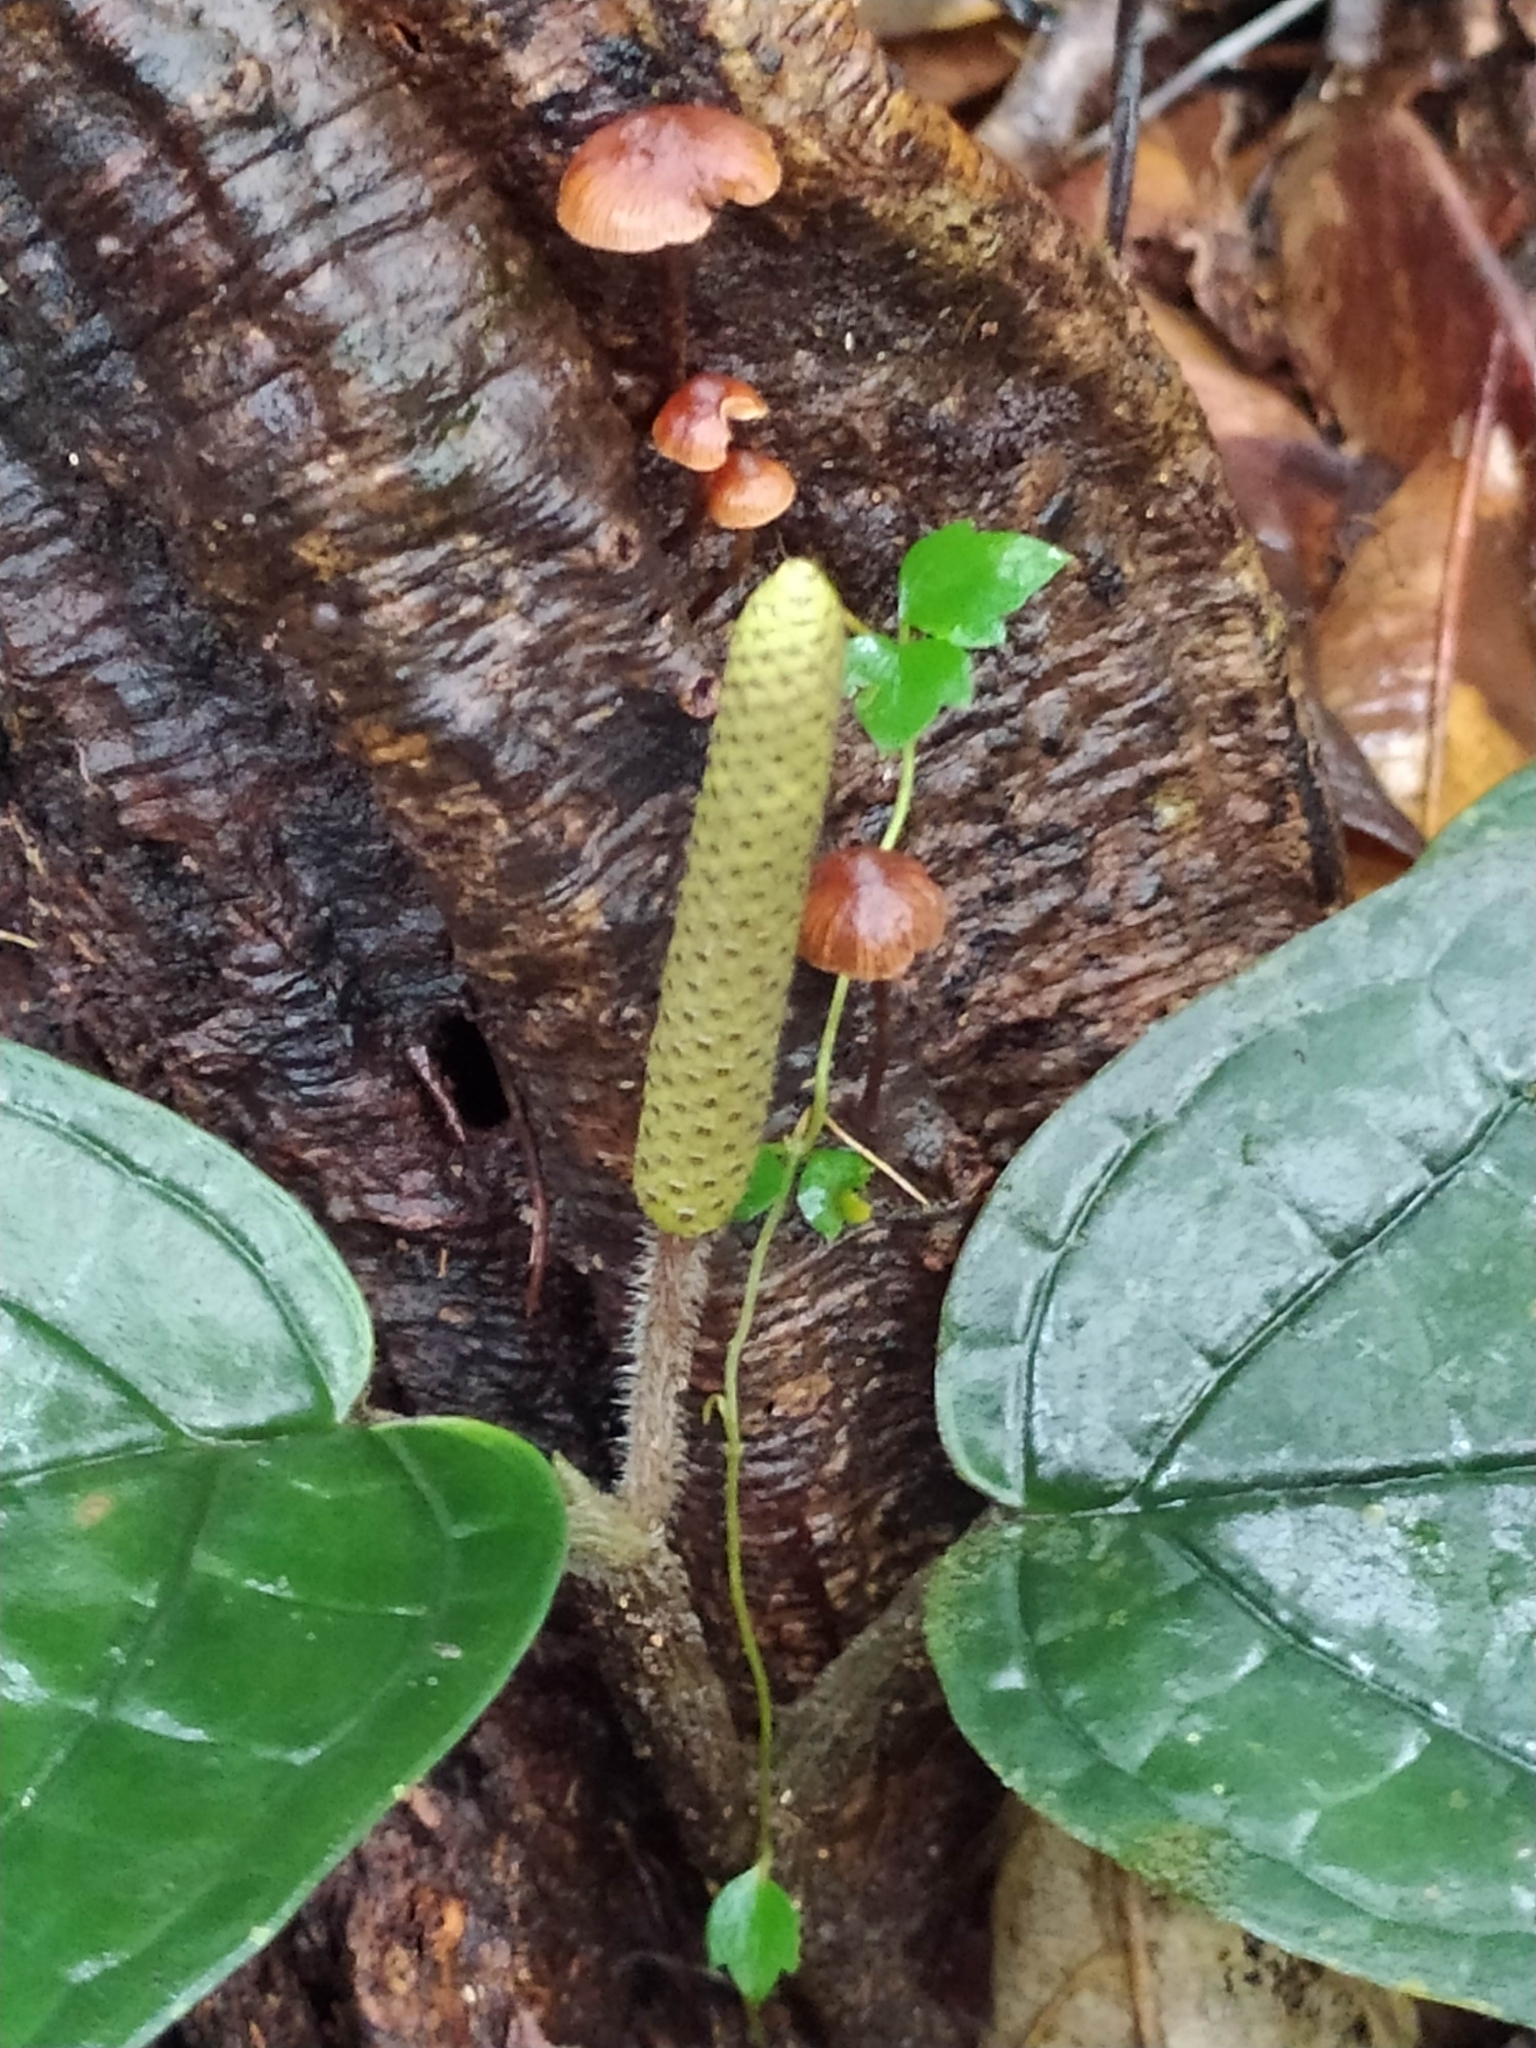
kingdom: Plantae
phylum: Tracheophyta
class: Magnoliopsida
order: Piperales
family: Piperaceae
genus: Piper
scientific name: Piper humistratum
